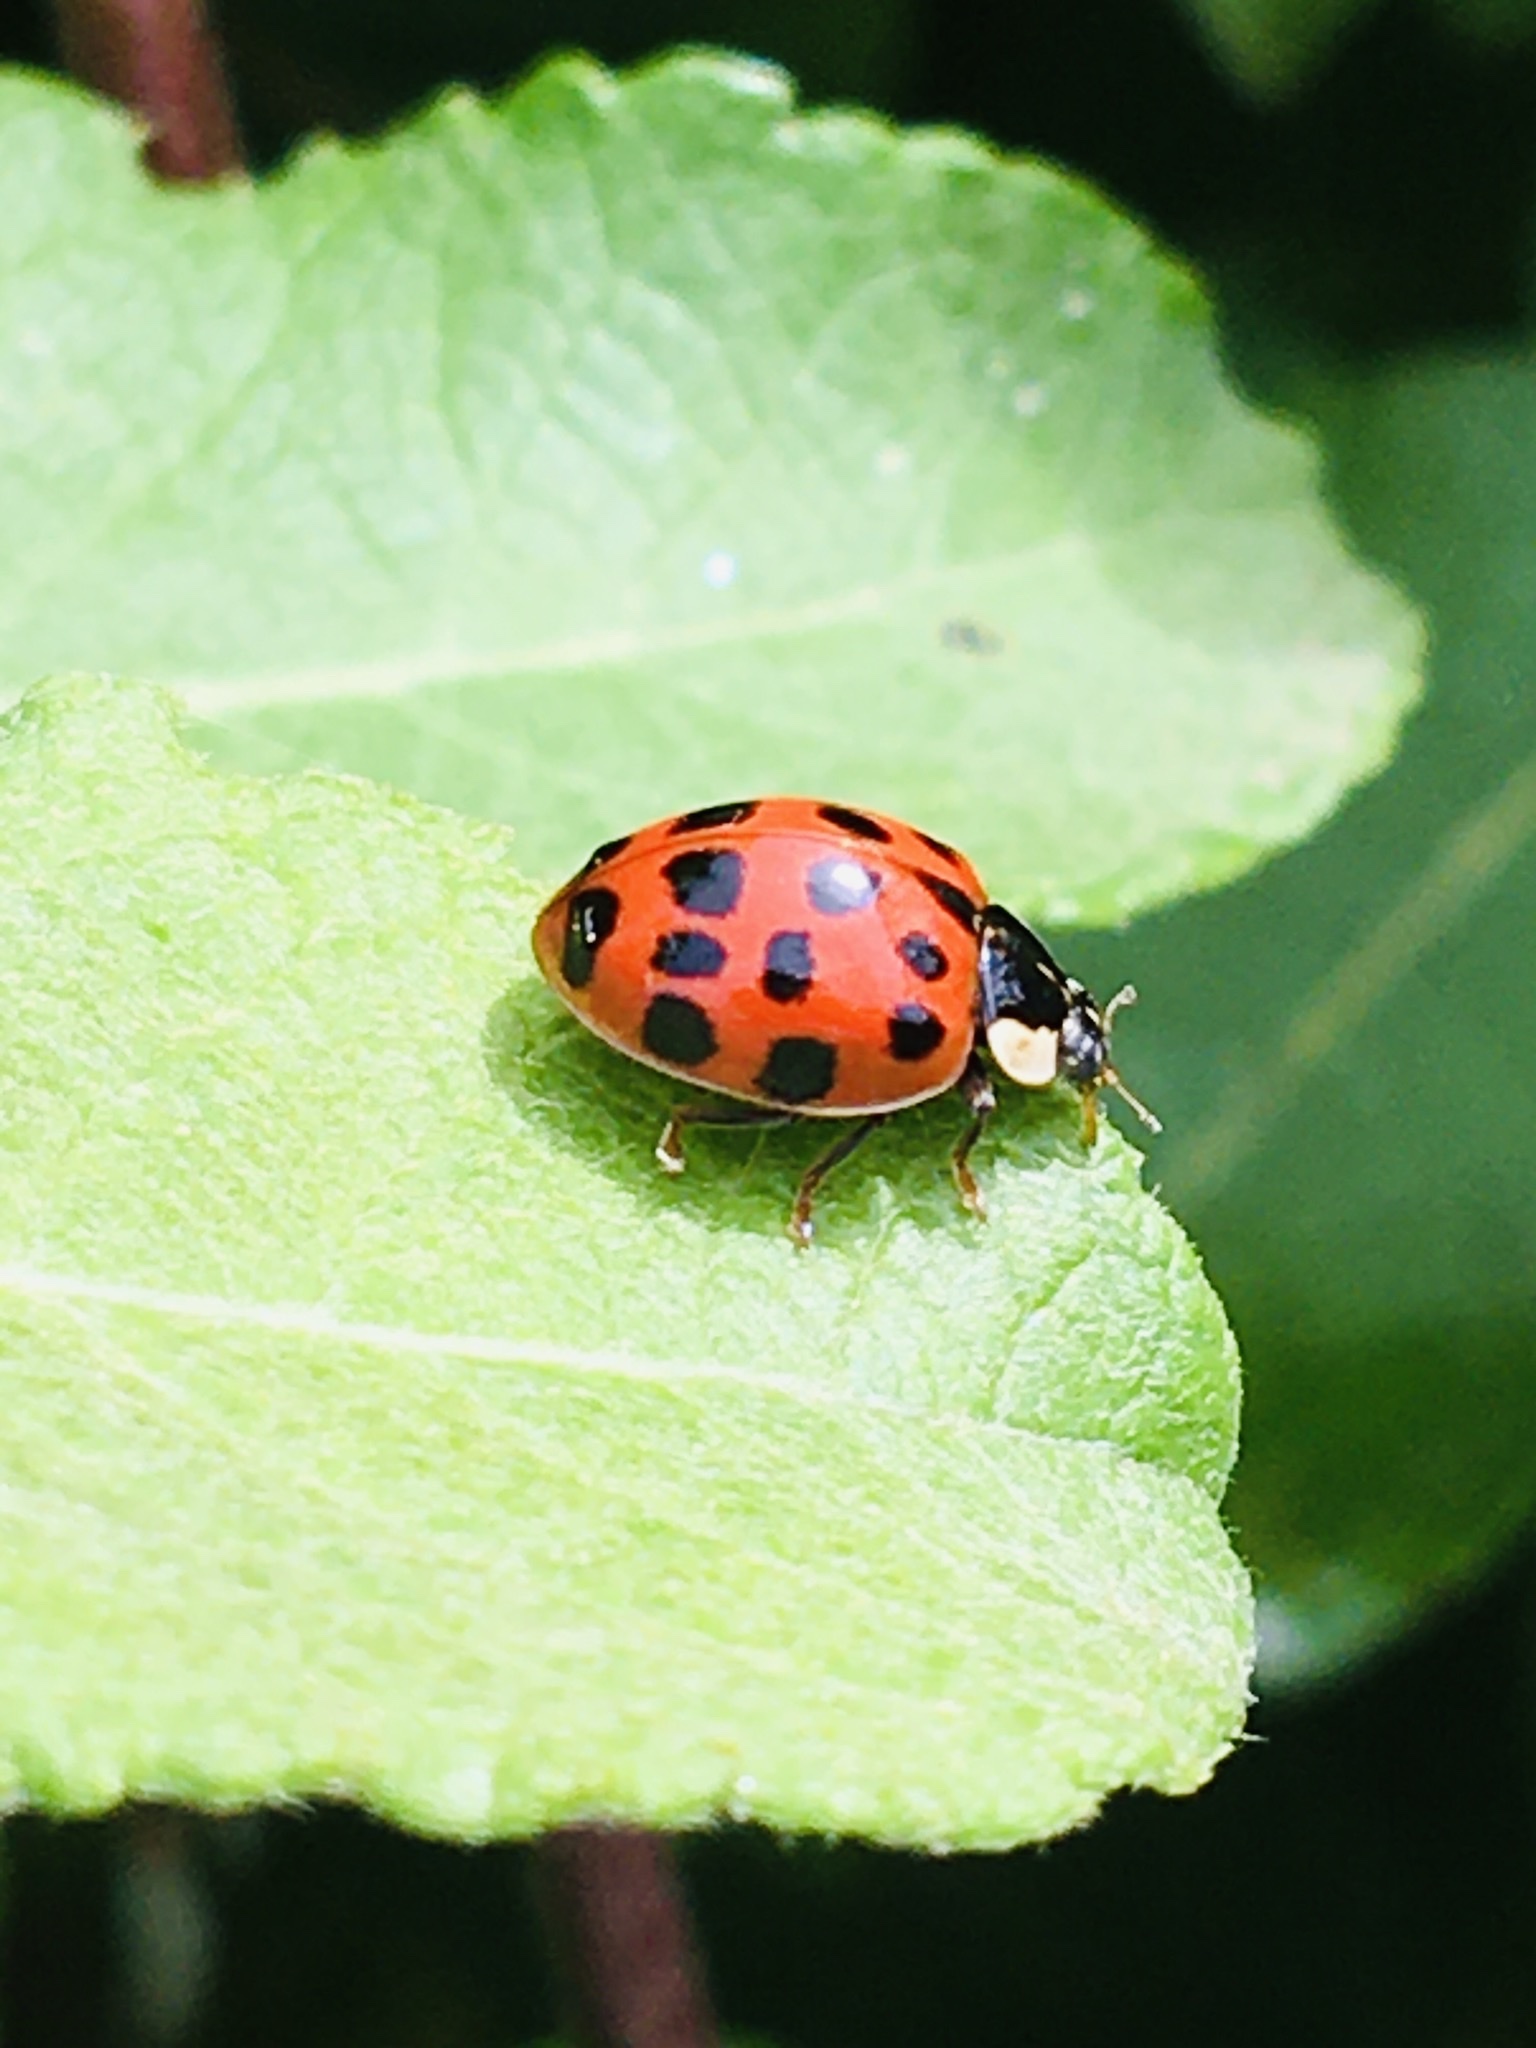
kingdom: Animalia
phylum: Arthropoda
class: Insecta
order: Coleoptera
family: Coccinellidae
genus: Harmonia
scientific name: Harmonia axyridis
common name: Harlequin ladybird
